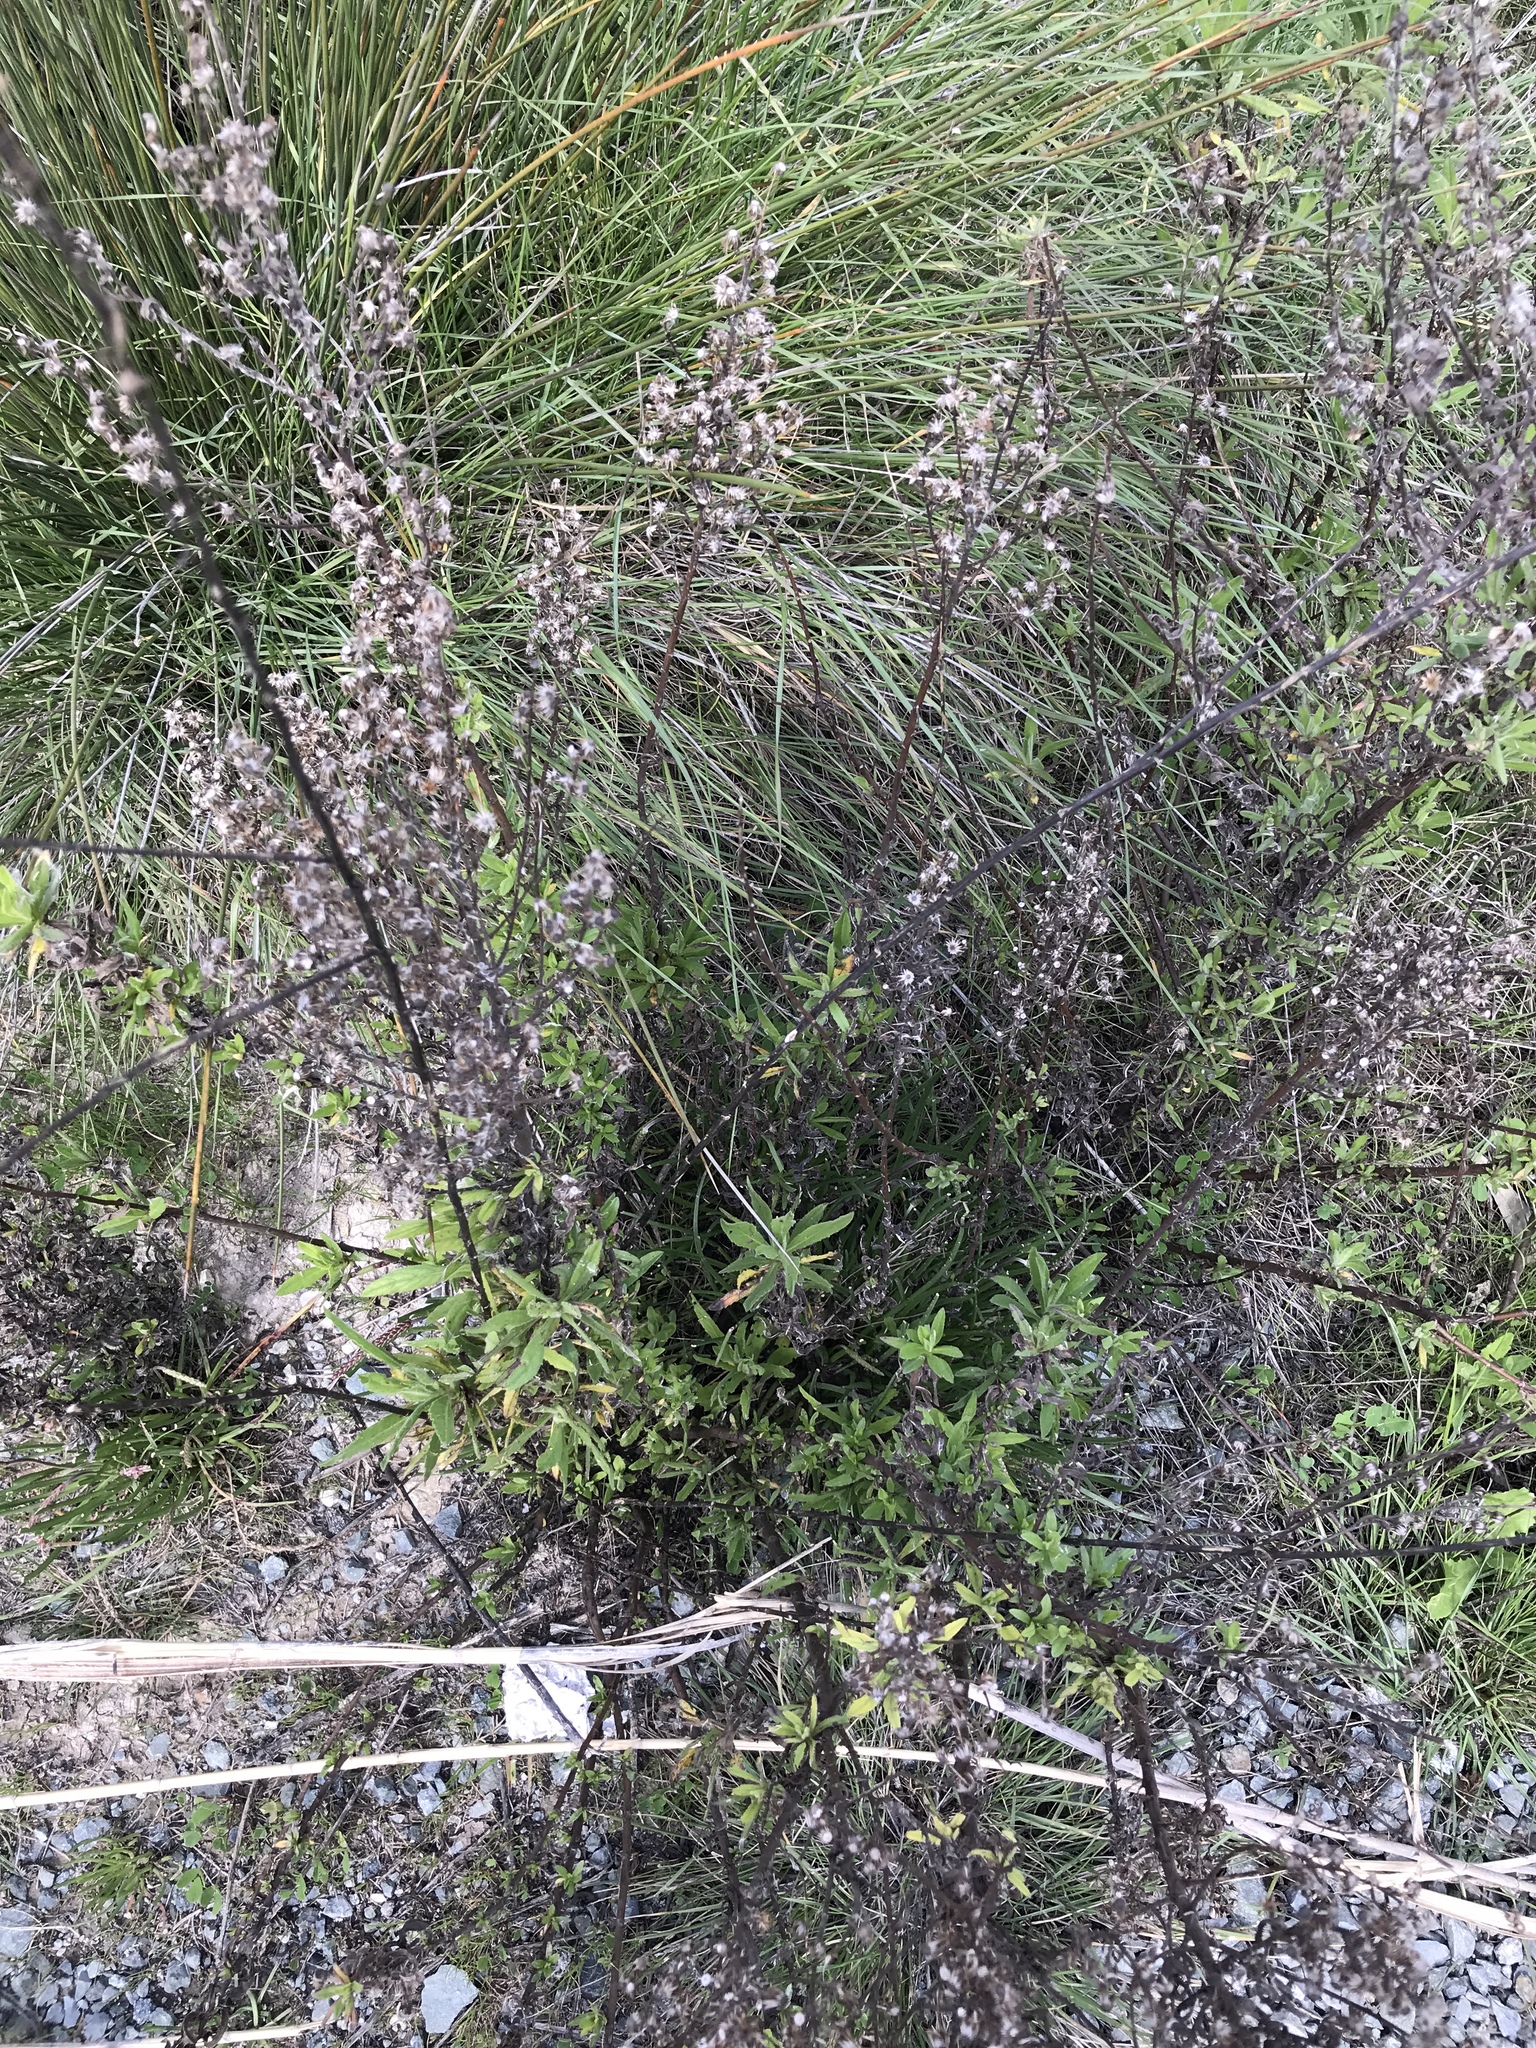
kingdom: Plantae
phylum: Tracheophyta
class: Magnoliopsida
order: Asterales
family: Asteraceae
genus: Dittrichia
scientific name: Dittrichia viscosa
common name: Woody fleabane
